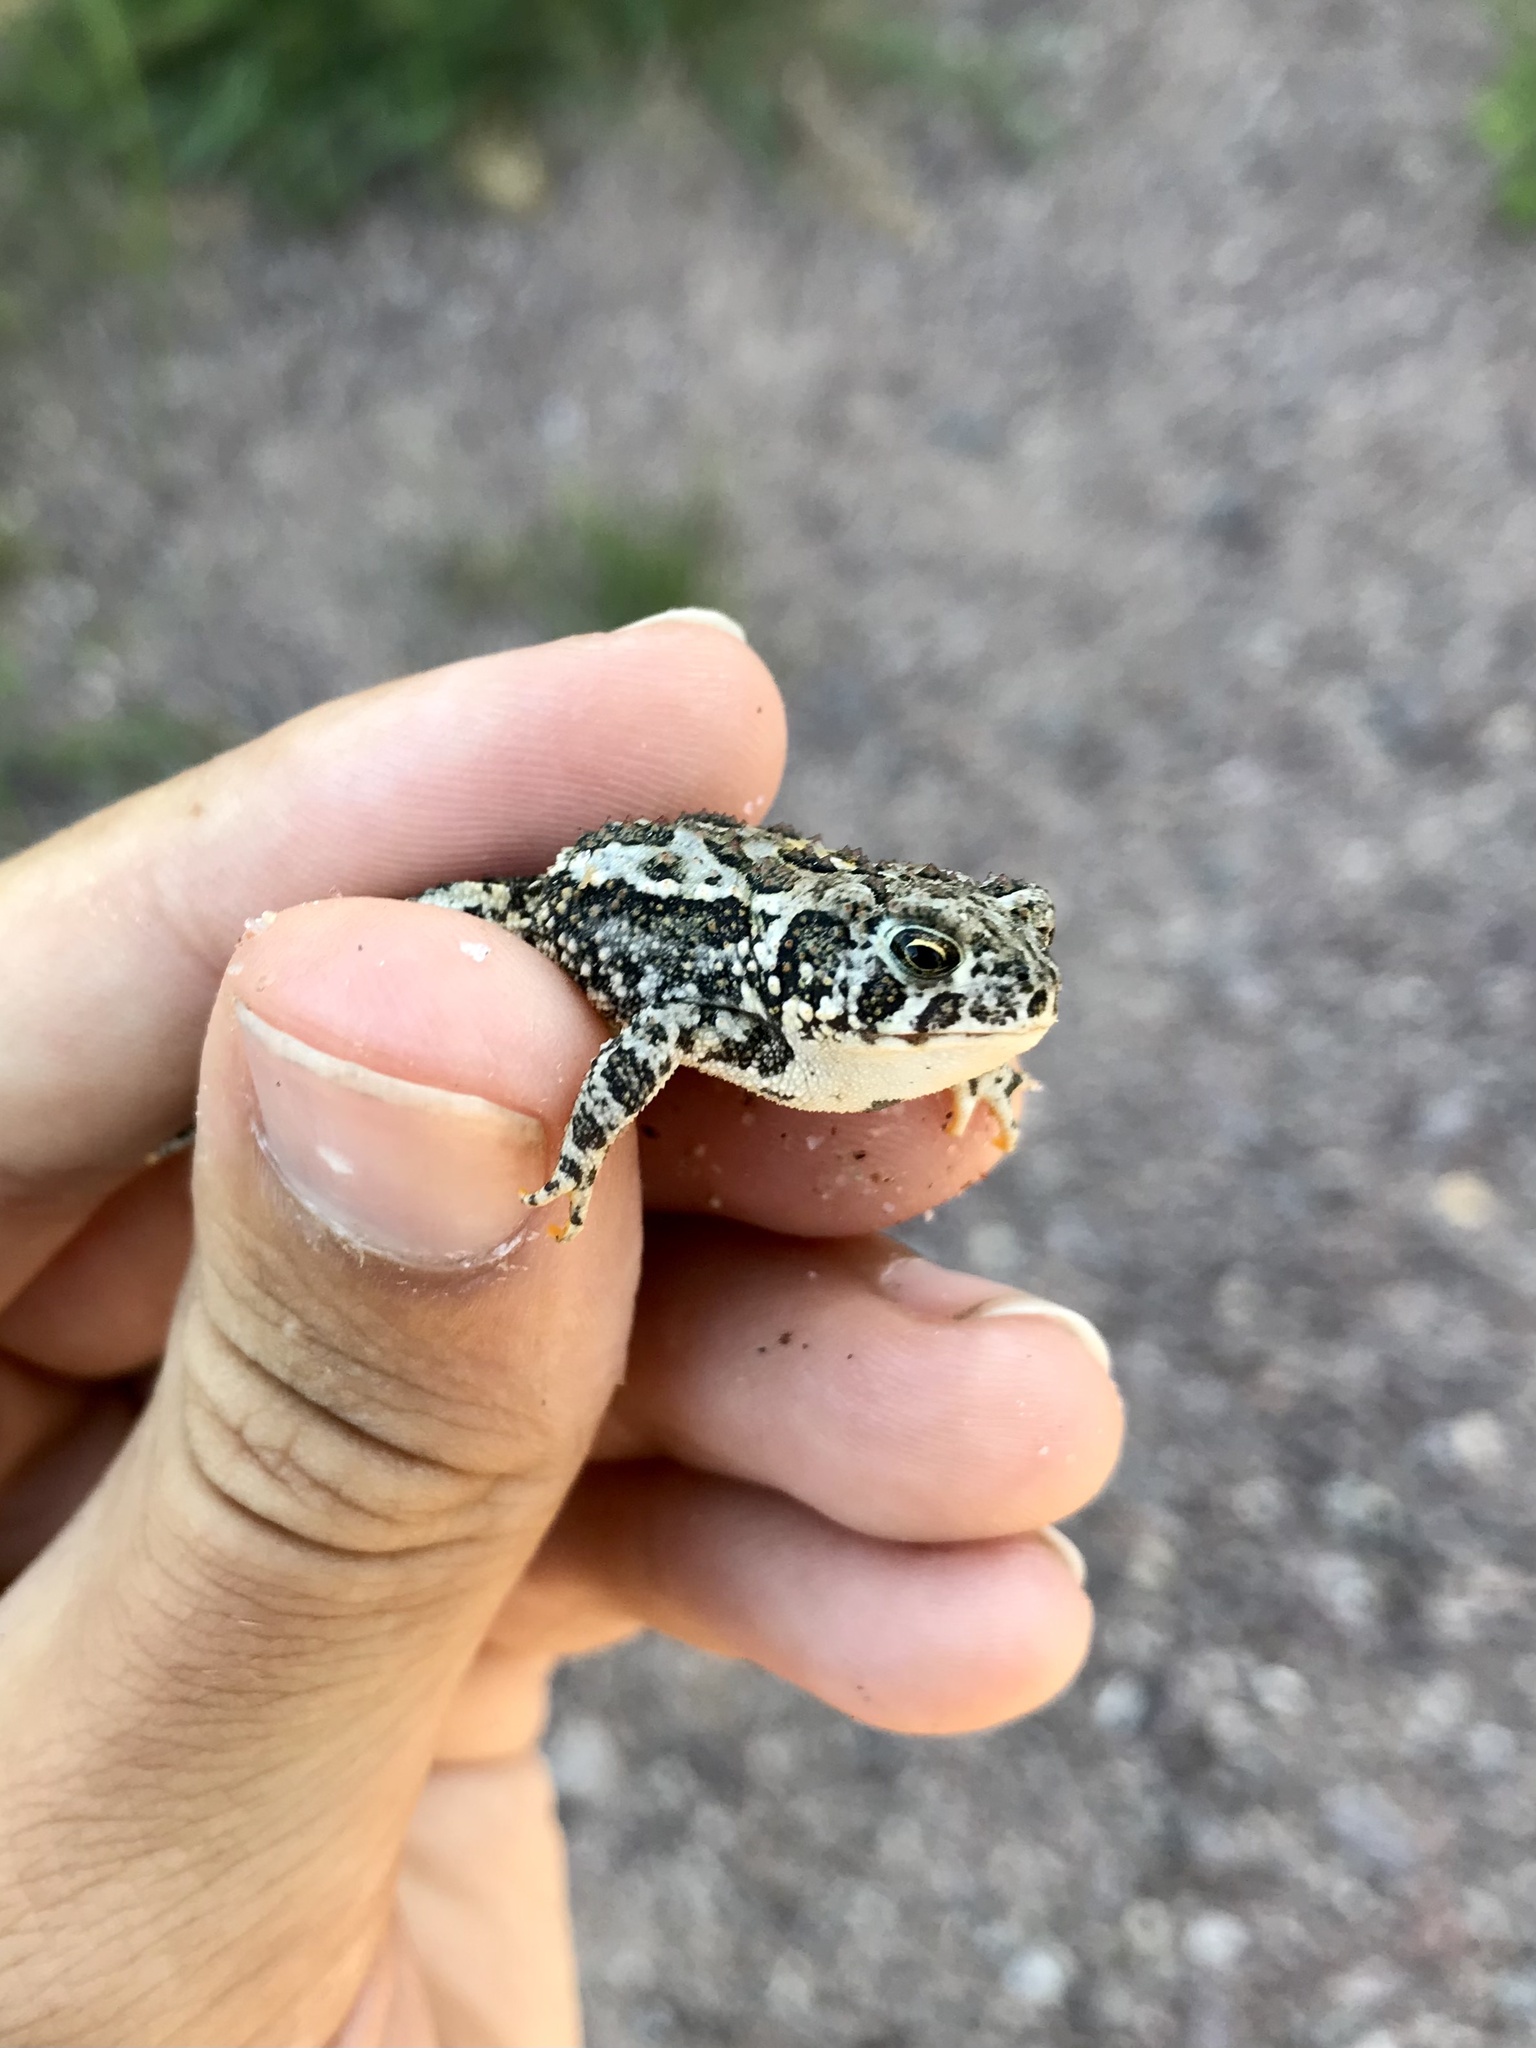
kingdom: Animalia
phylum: Chordata
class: Amphibia
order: Anura
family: Bufonidae
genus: Anaxyrus
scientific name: Anaxyrus hemiophrys
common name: Canadian toad
